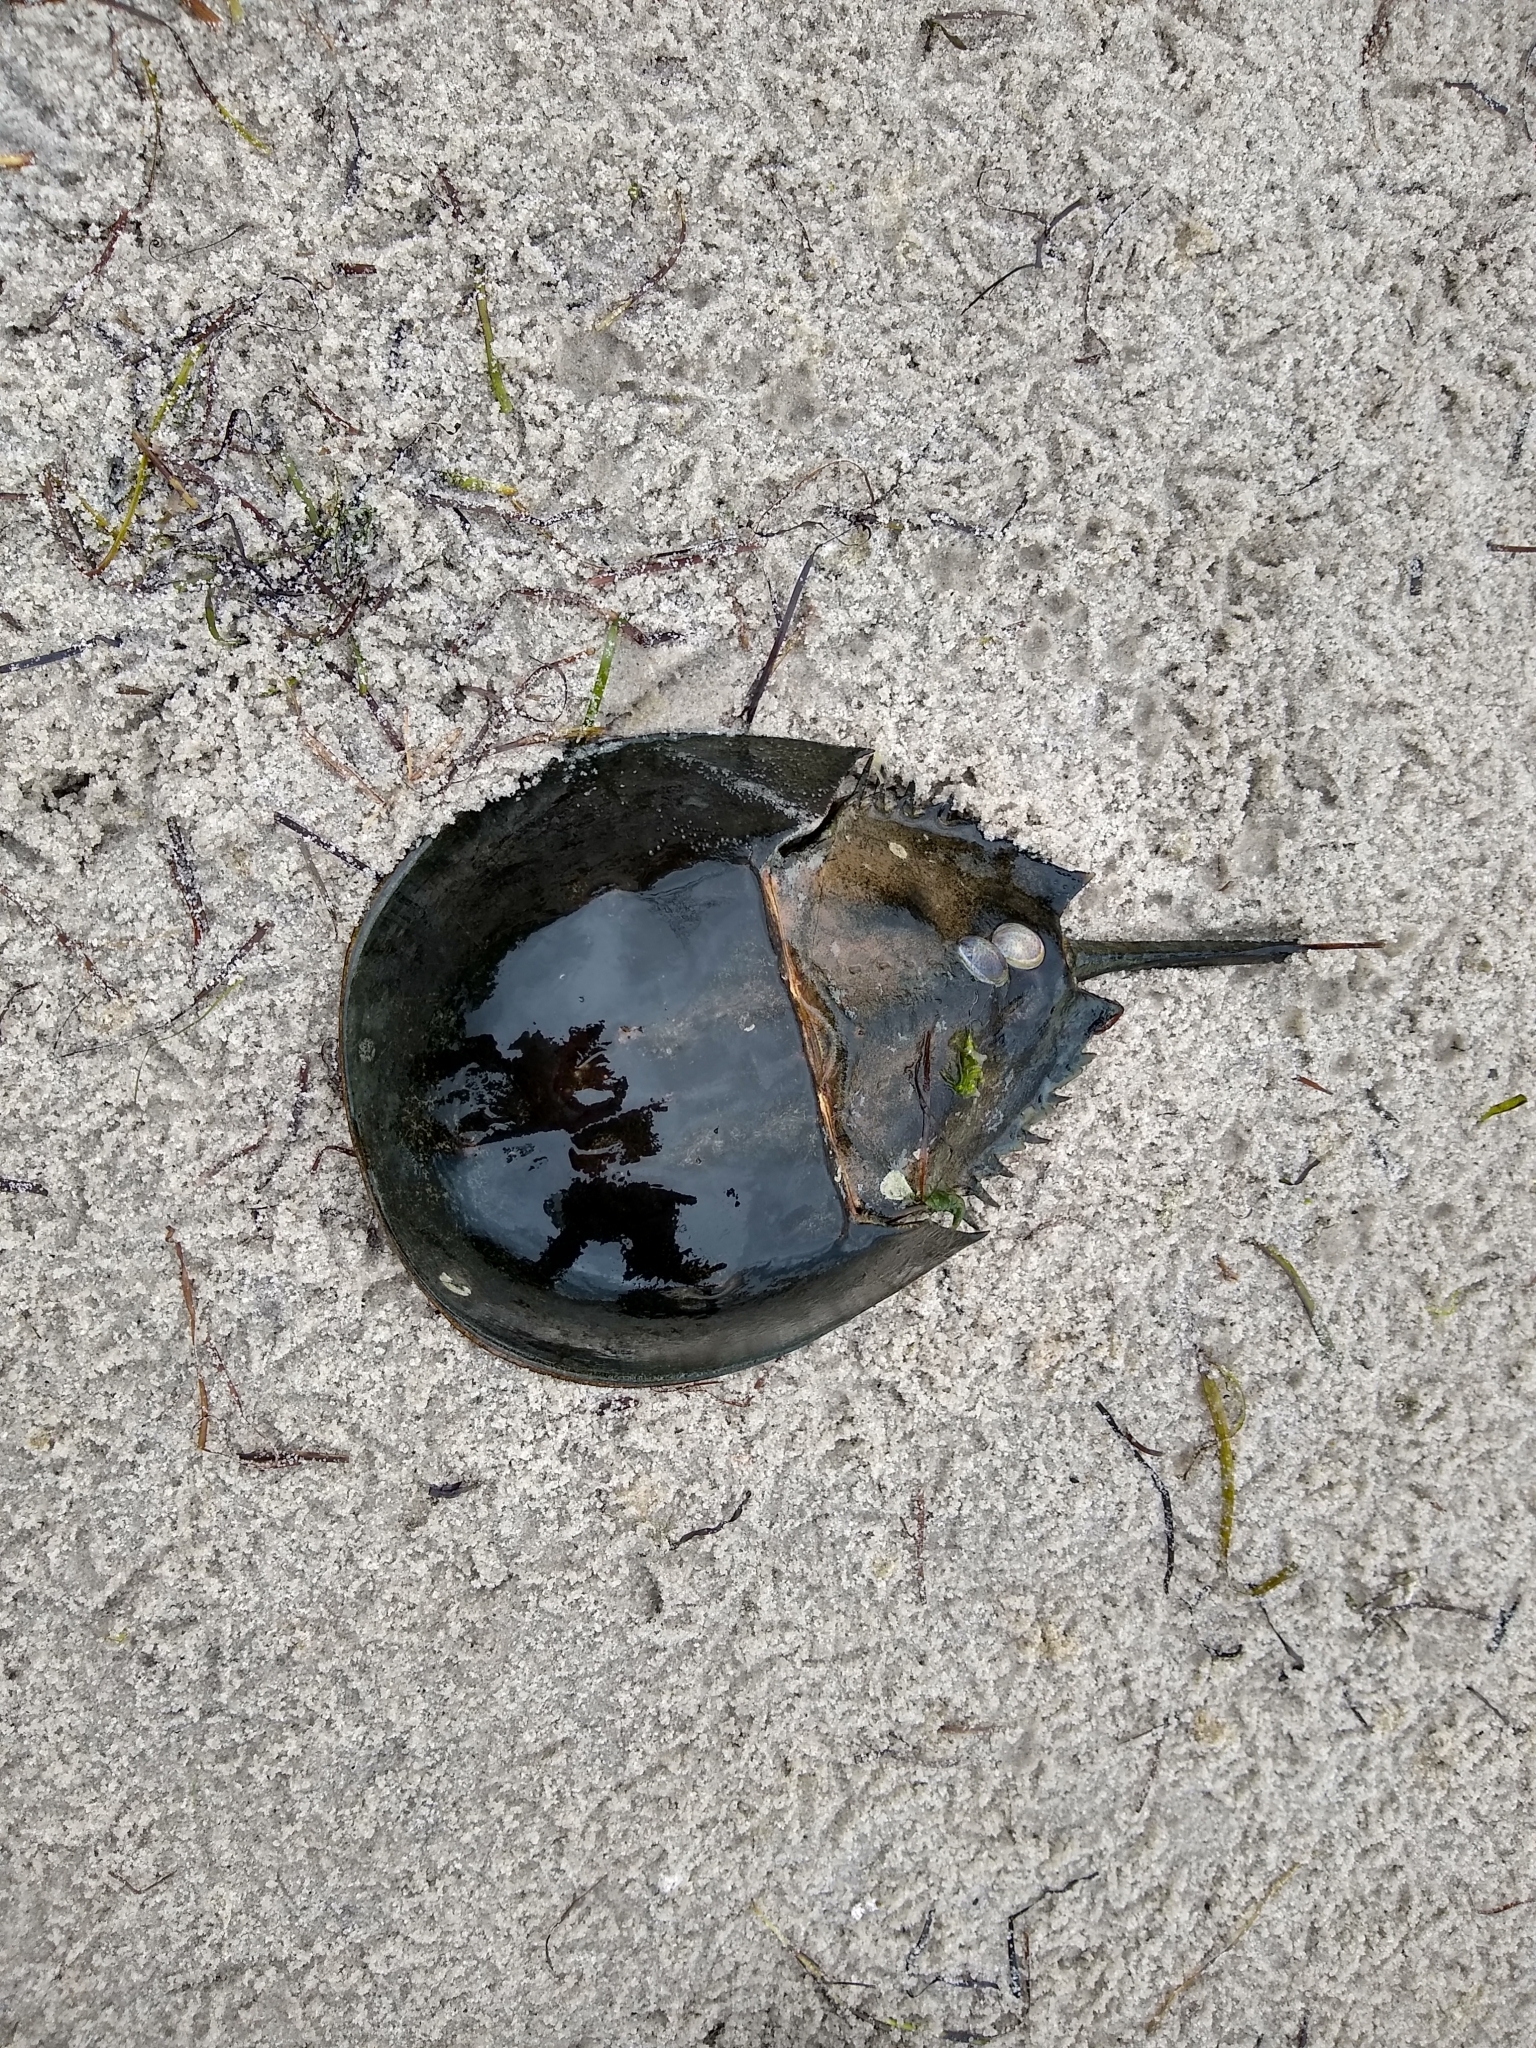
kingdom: Animalia
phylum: Arthropoda
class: Merostomata
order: Xiphosurida
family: Limulidae
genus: Limulus
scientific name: Limulus polyphemus
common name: Horseshoe crab
